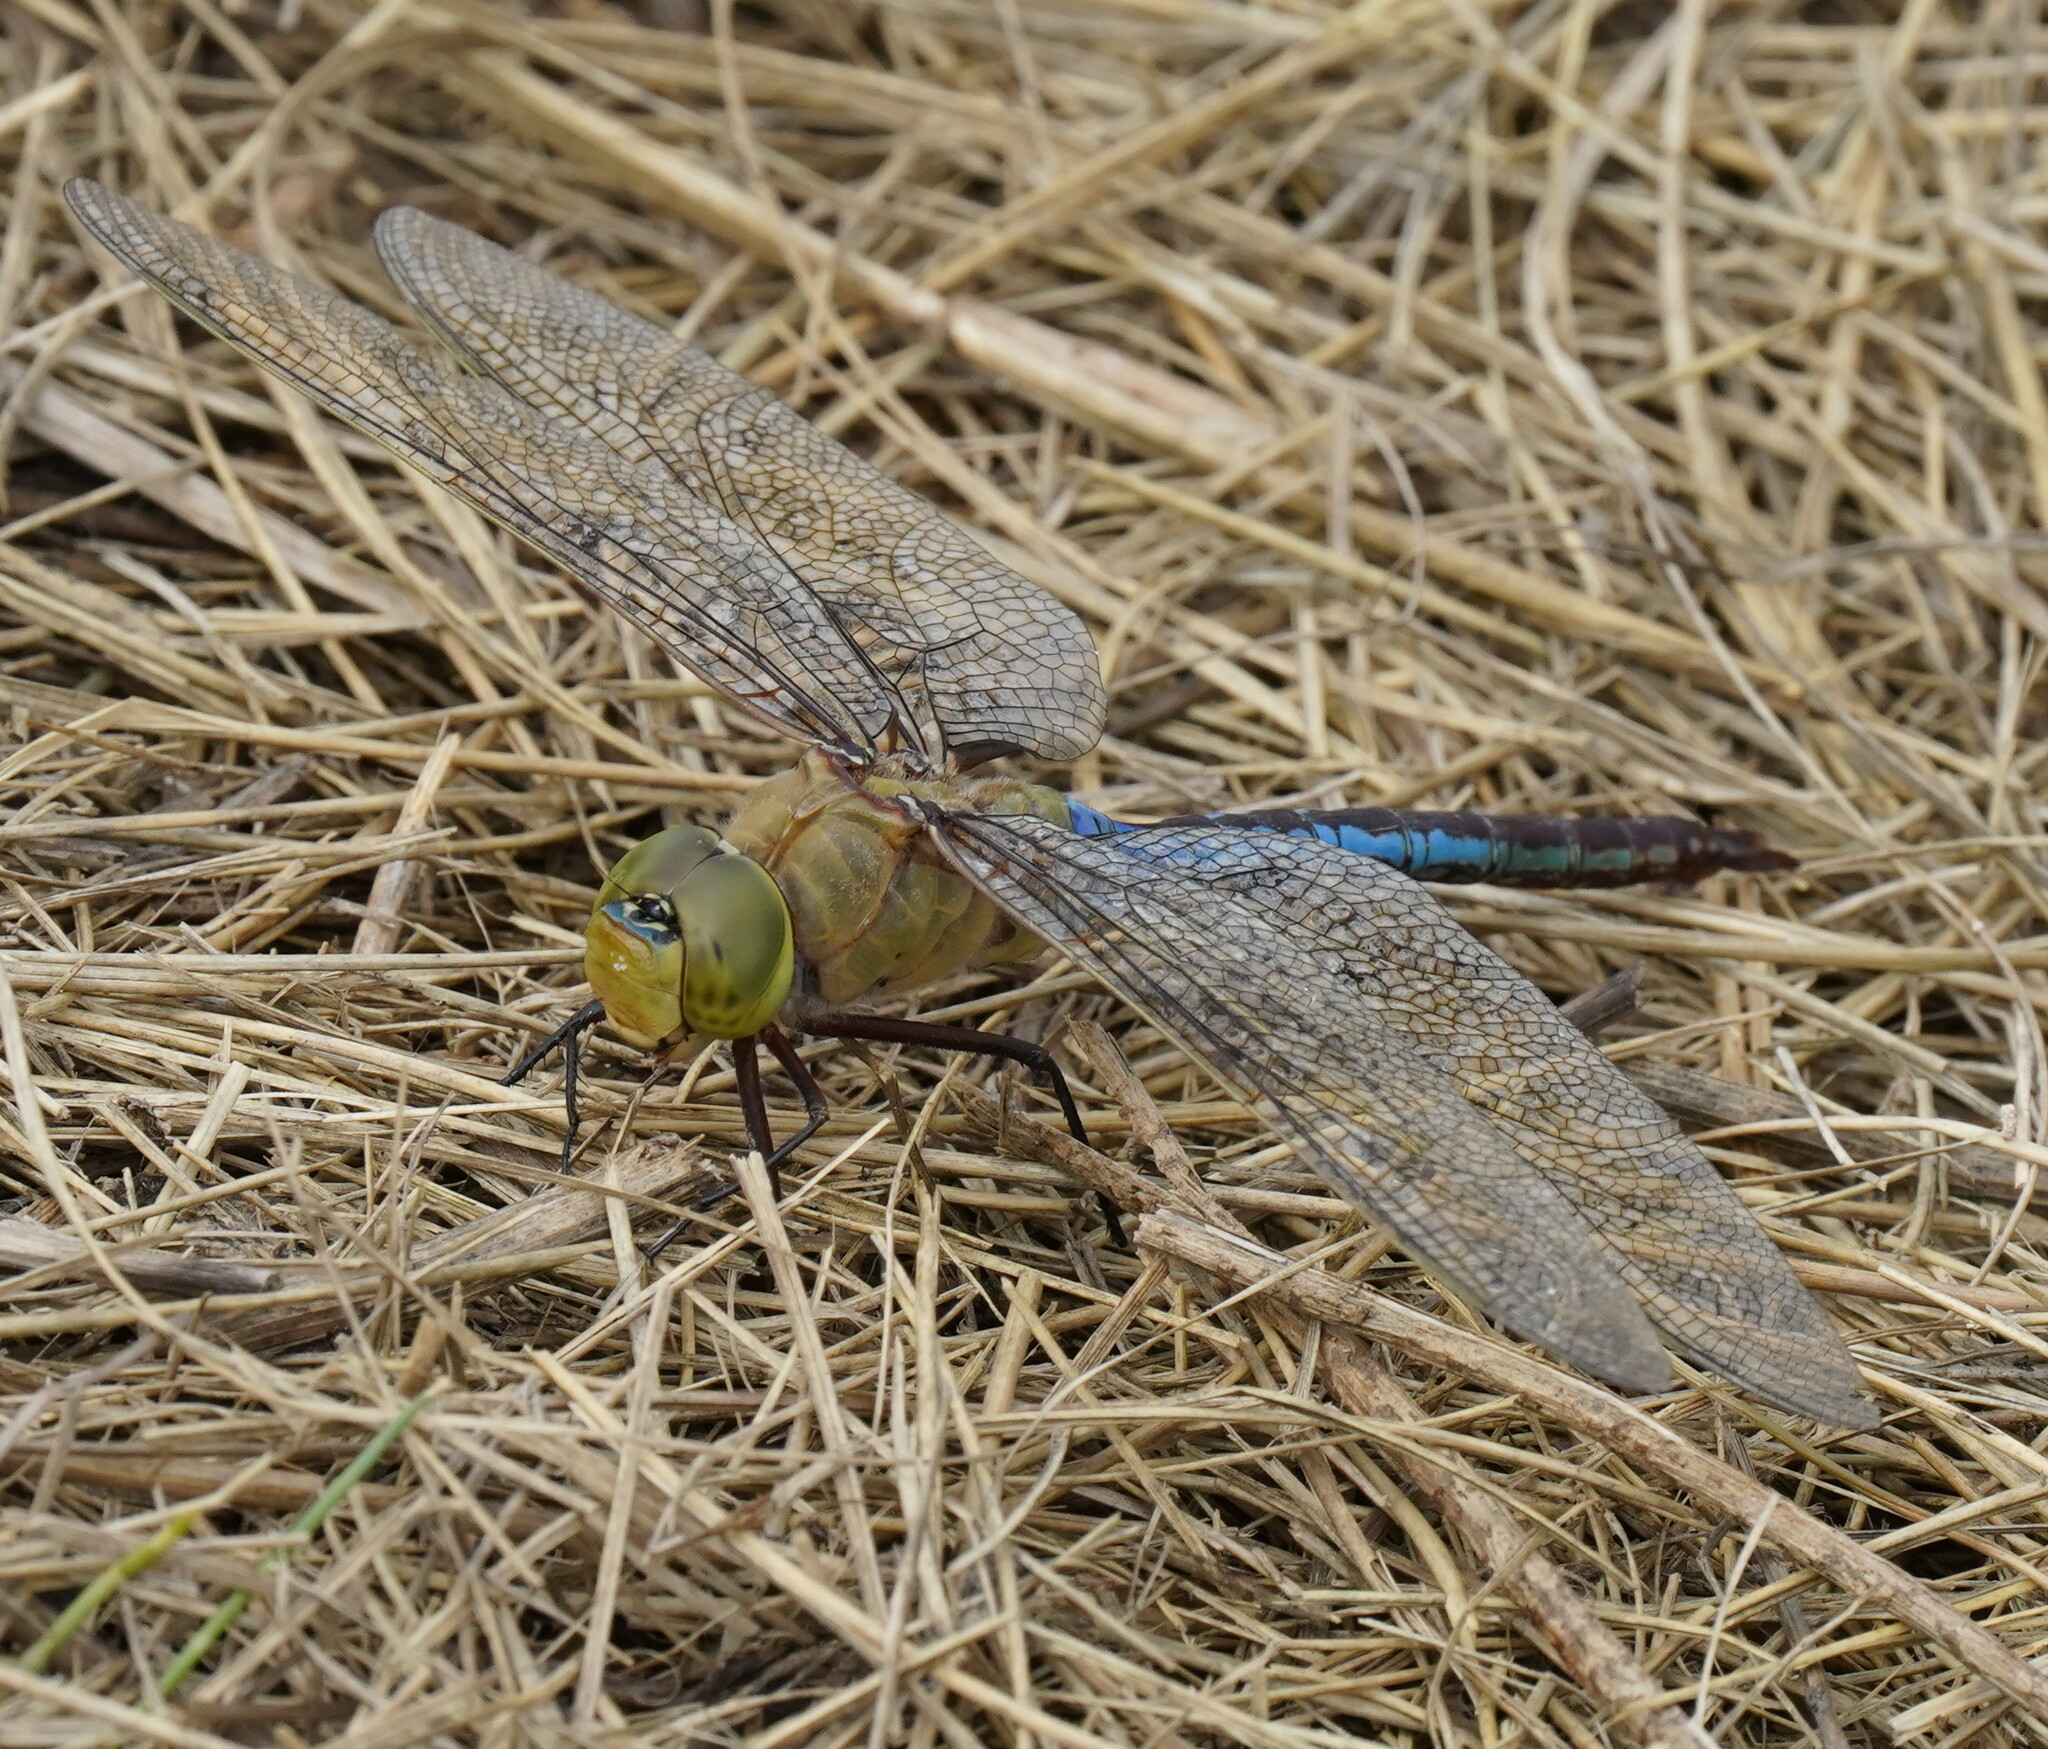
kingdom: Animalia
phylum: Arthropoda
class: Insecta
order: Odonata
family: Aeshnidae
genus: Anax
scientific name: Anax junius
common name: Common green darner
